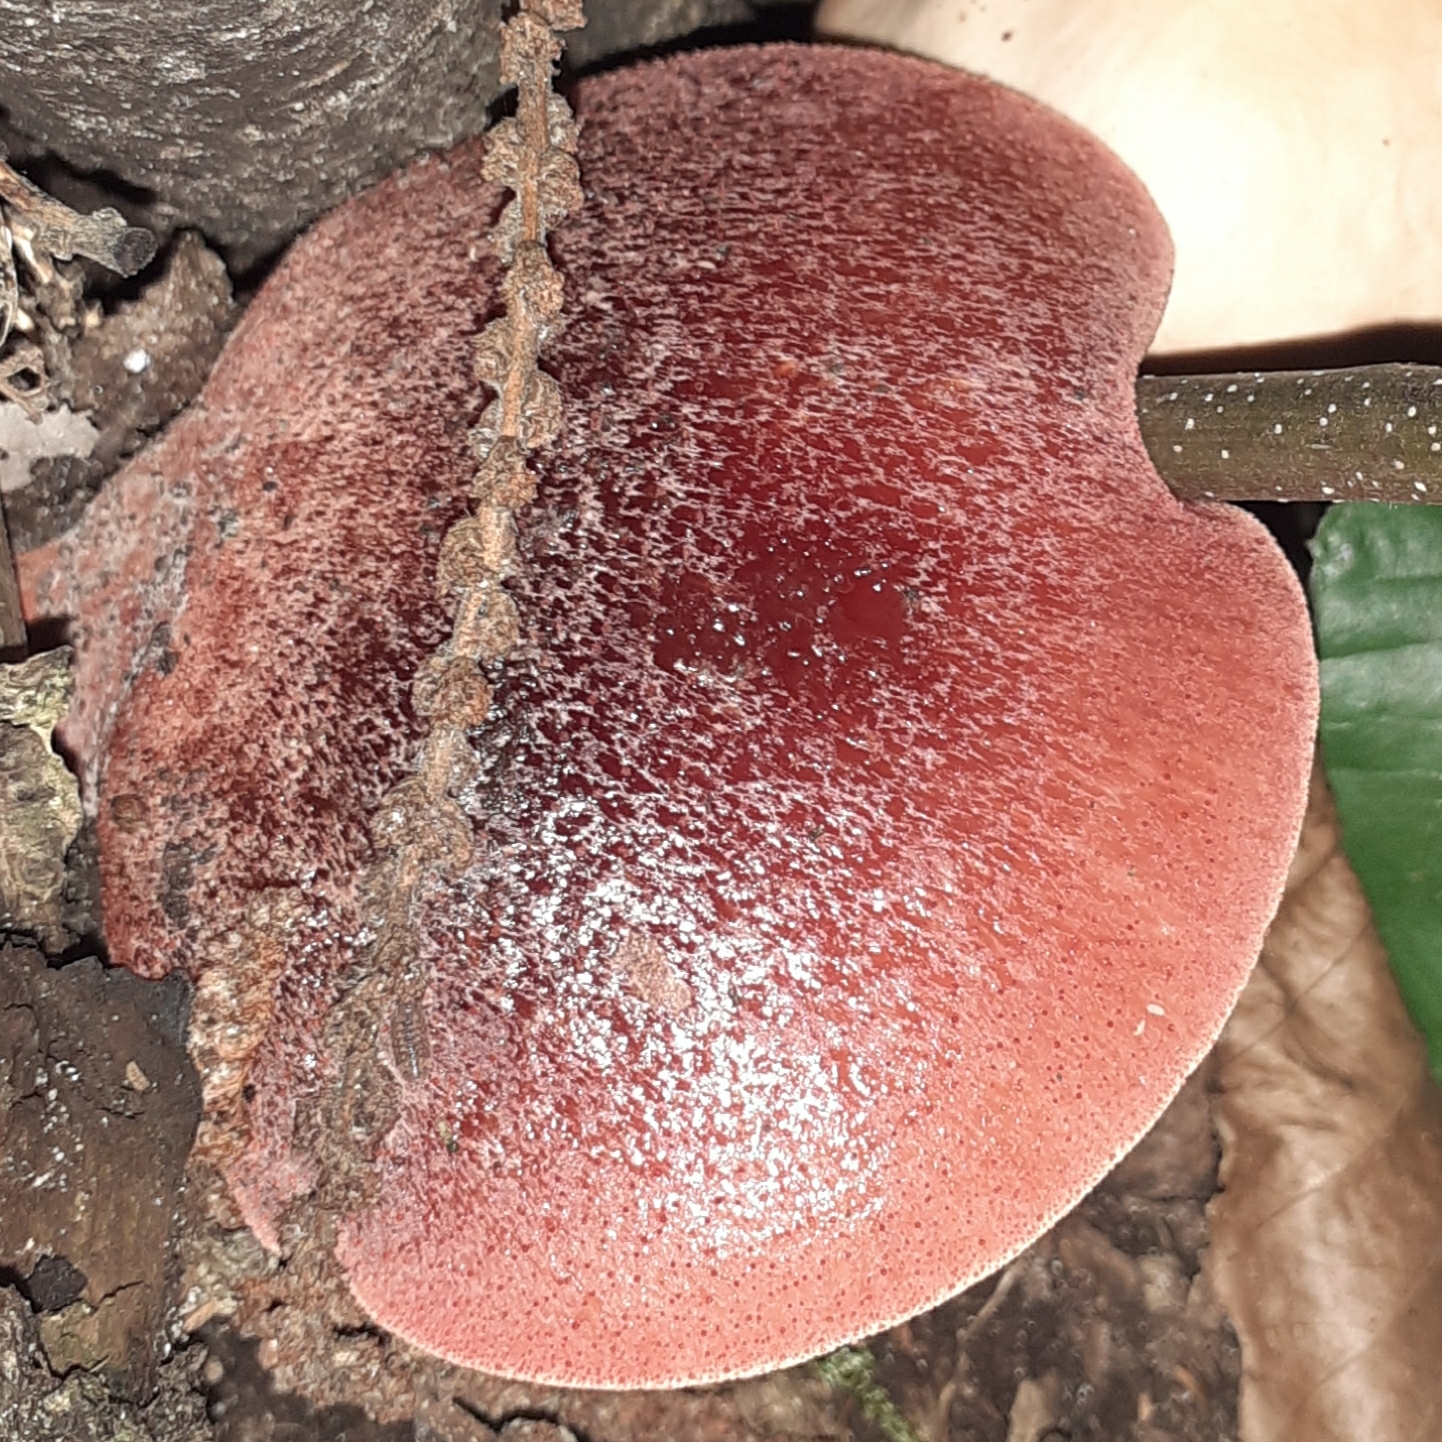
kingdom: Fungi
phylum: Basidiomycota
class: Agaricomycetes
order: Agaricales
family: Fistulinaceae
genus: Fistulina
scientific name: Fistulina hepatica
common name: Beef-steak fungus
